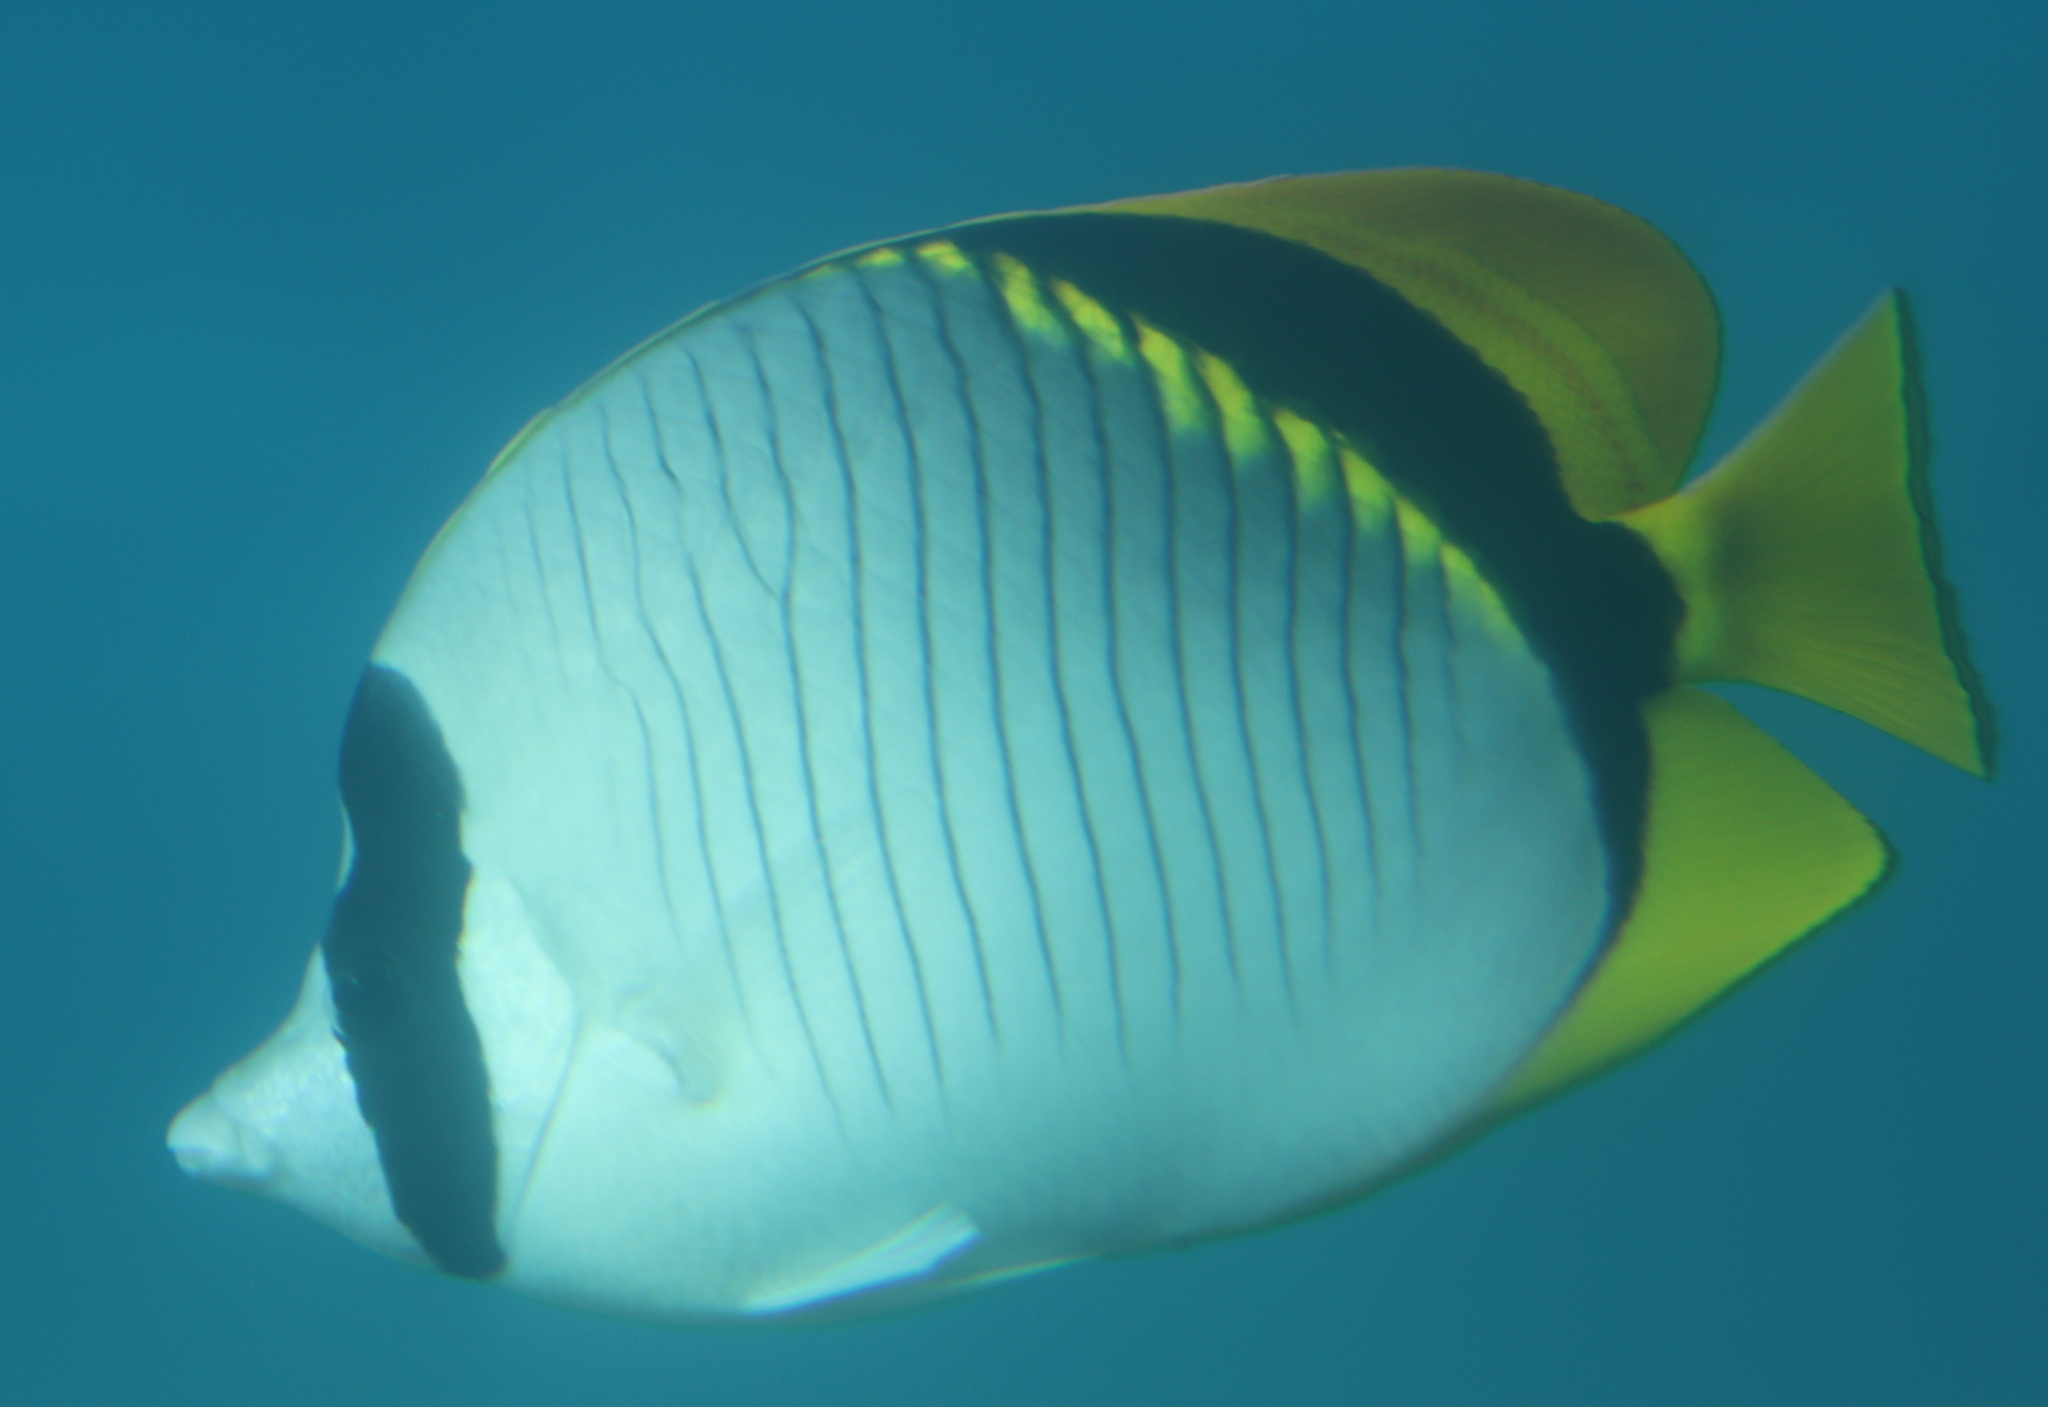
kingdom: Animalia
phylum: Chordata
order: Perciformes
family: Chaetodontidae
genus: Chaetodon
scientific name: Chaetodon lineolatus
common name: Lined butterflyfish
